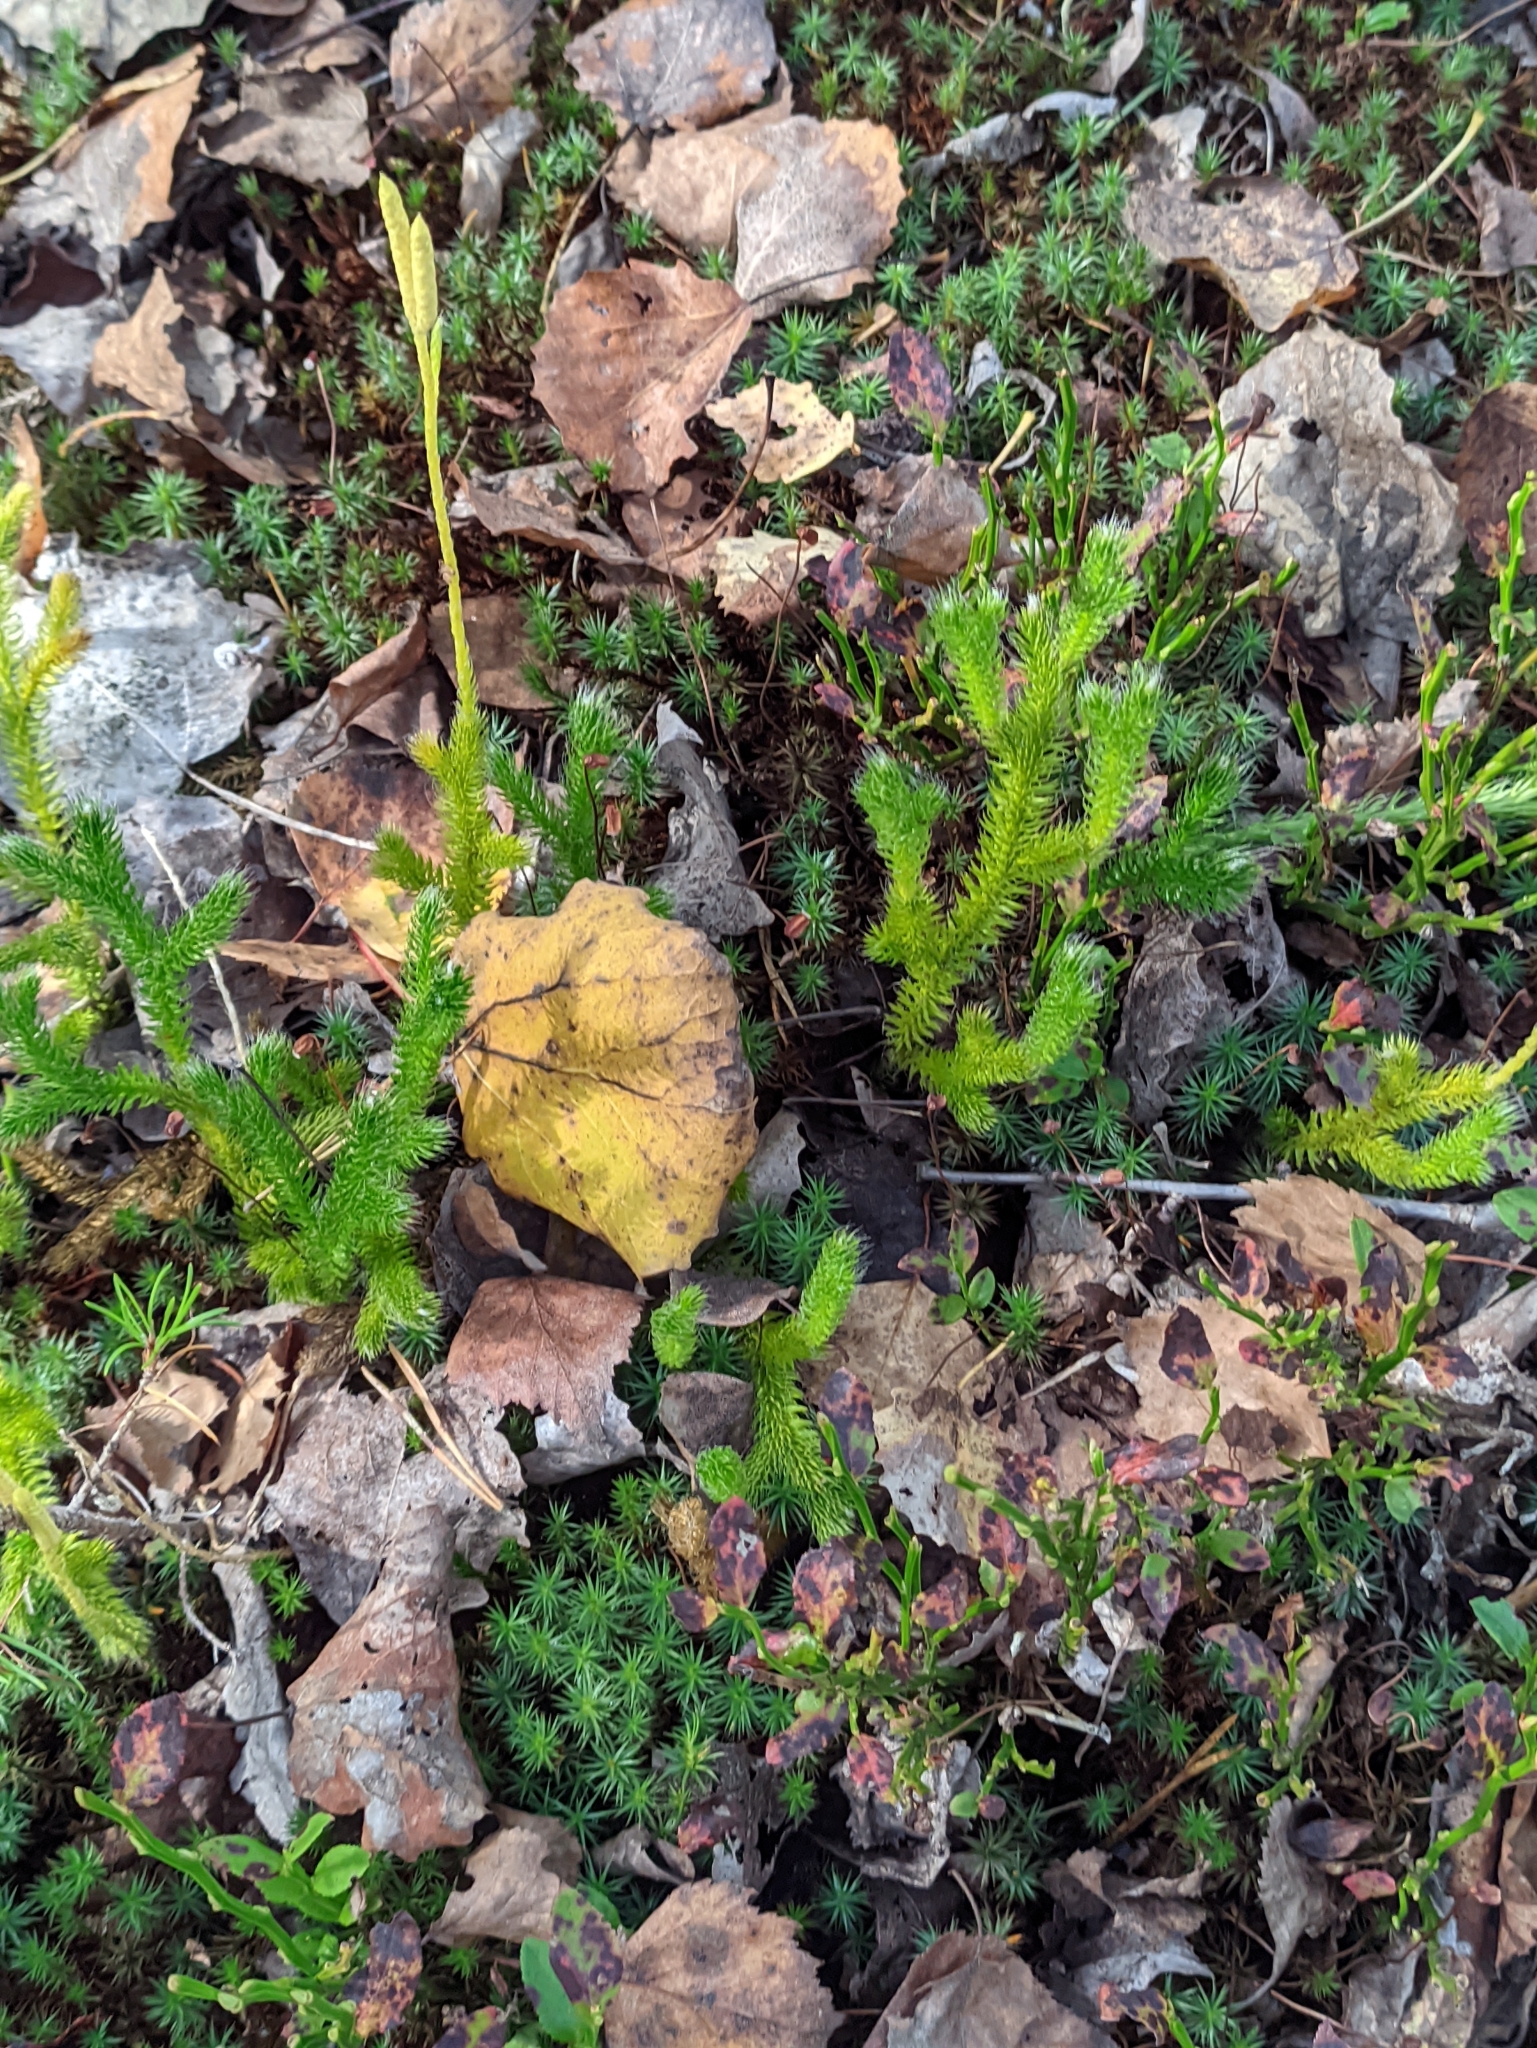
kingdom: Plantae
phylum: Tracheophyta
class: Lycopodiopsida
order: Lycopodiales
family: Lycopodiaceae
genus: Lycopodium
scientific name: Lycopodium clavatum
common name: Stag's-horn clubmoss
